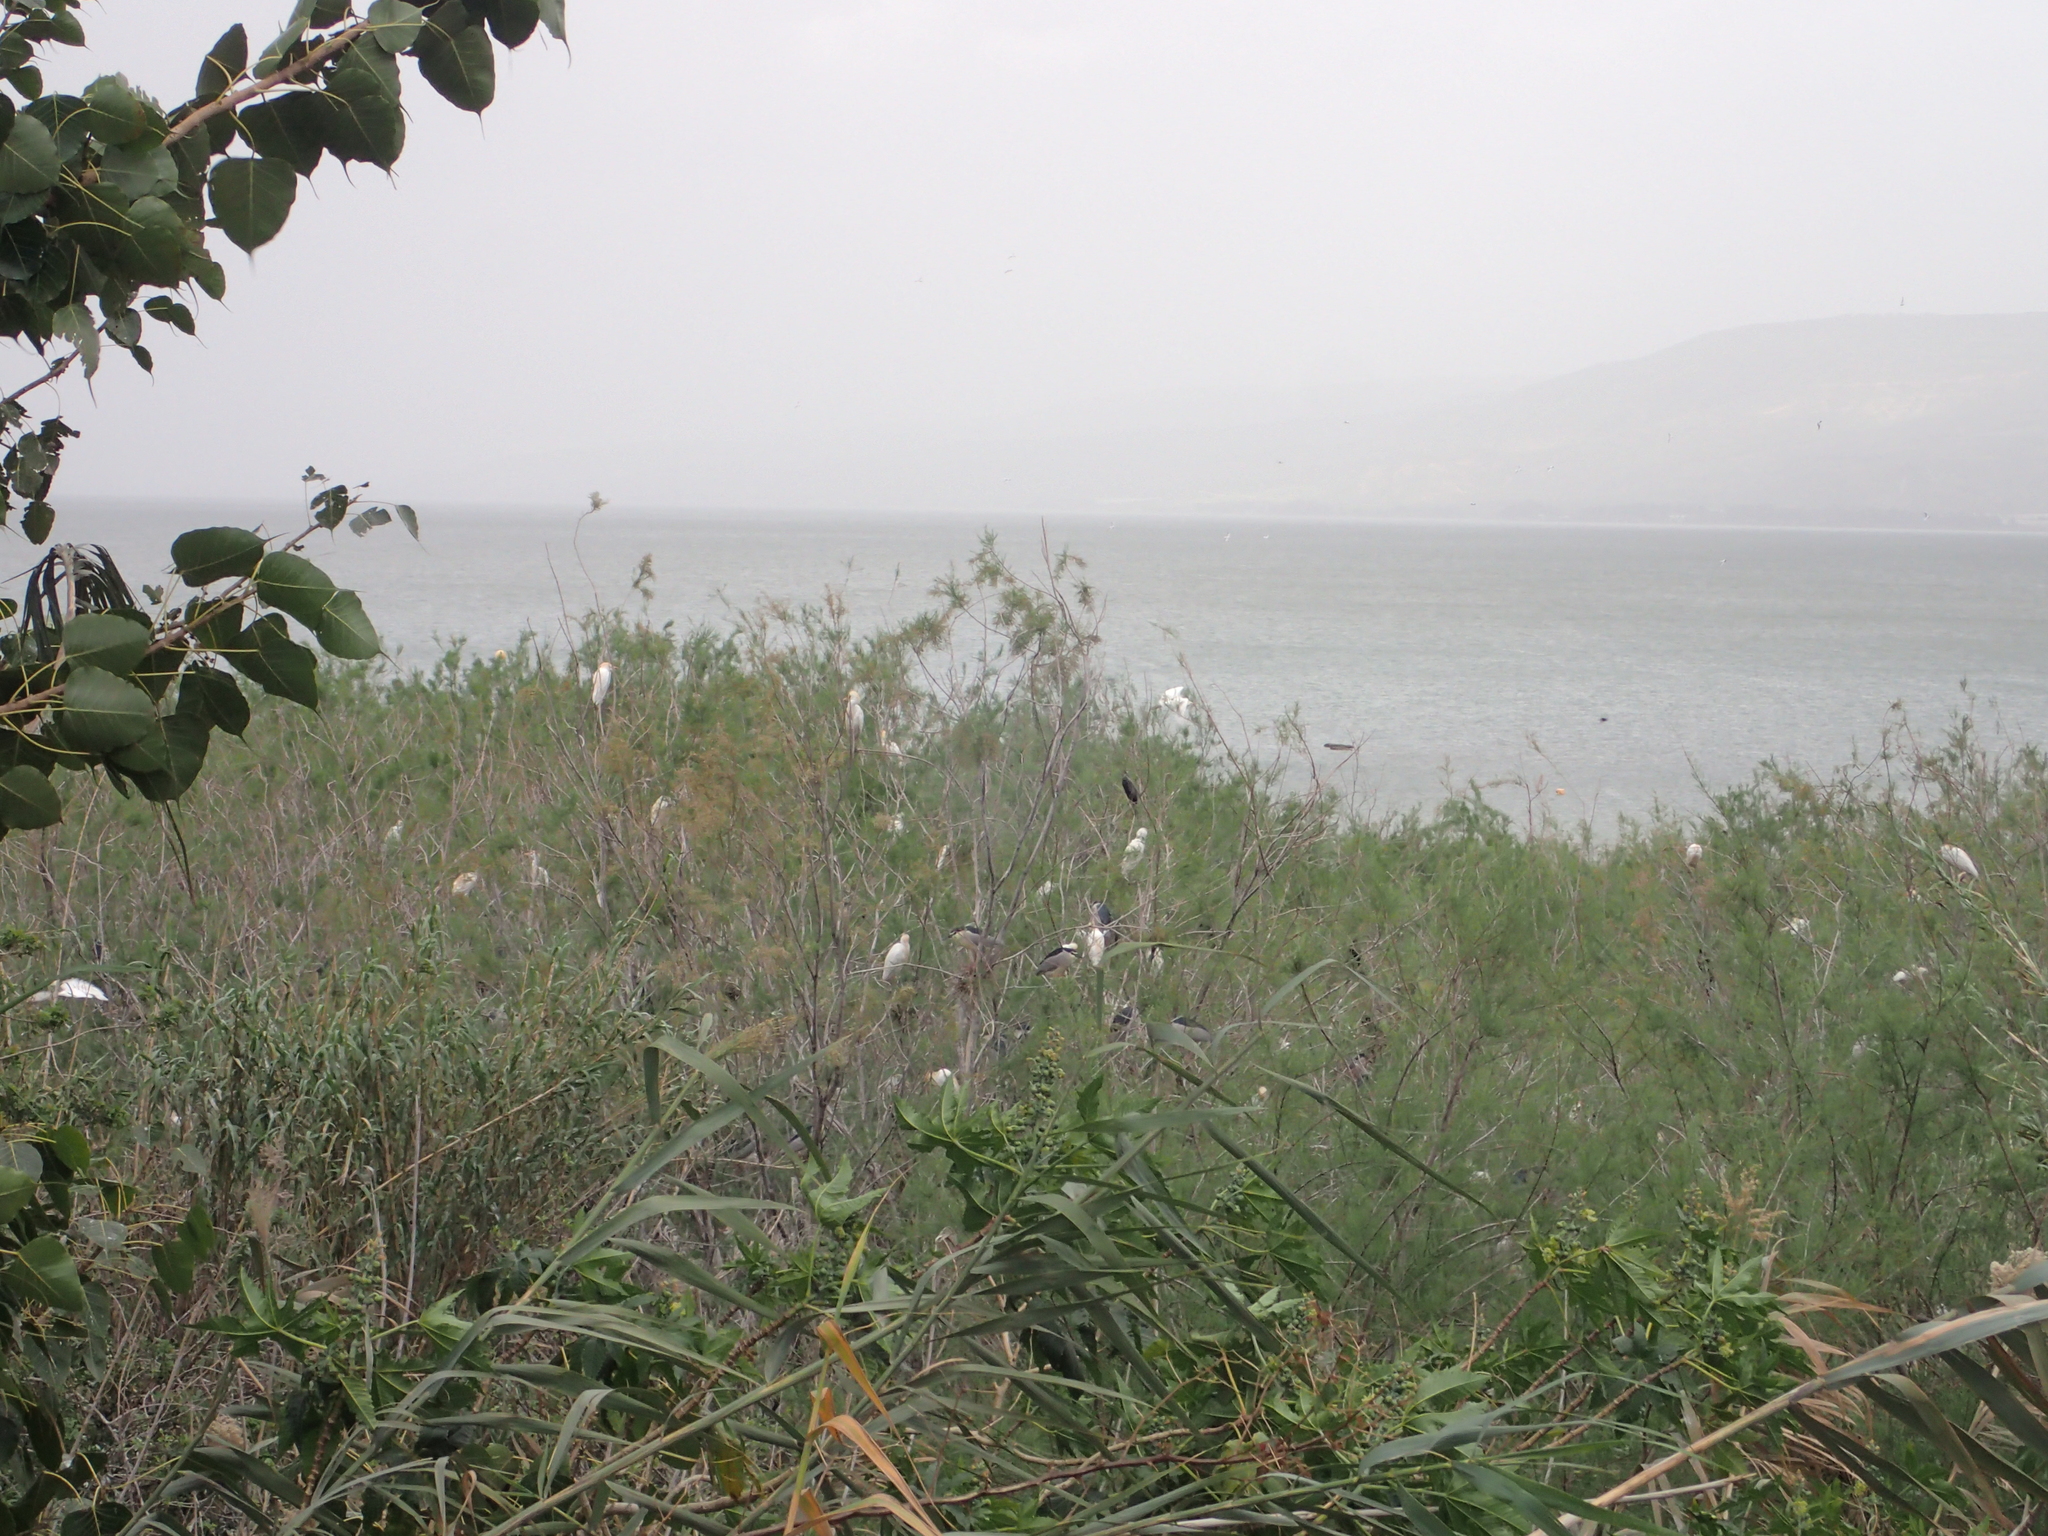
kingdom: Animalia
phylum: Chordata
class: Aves
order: Pelecaniformes
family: Ardeidae
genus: Nycticorax
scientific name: Nycticorax nycticorax
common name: Black-crowned night heron
